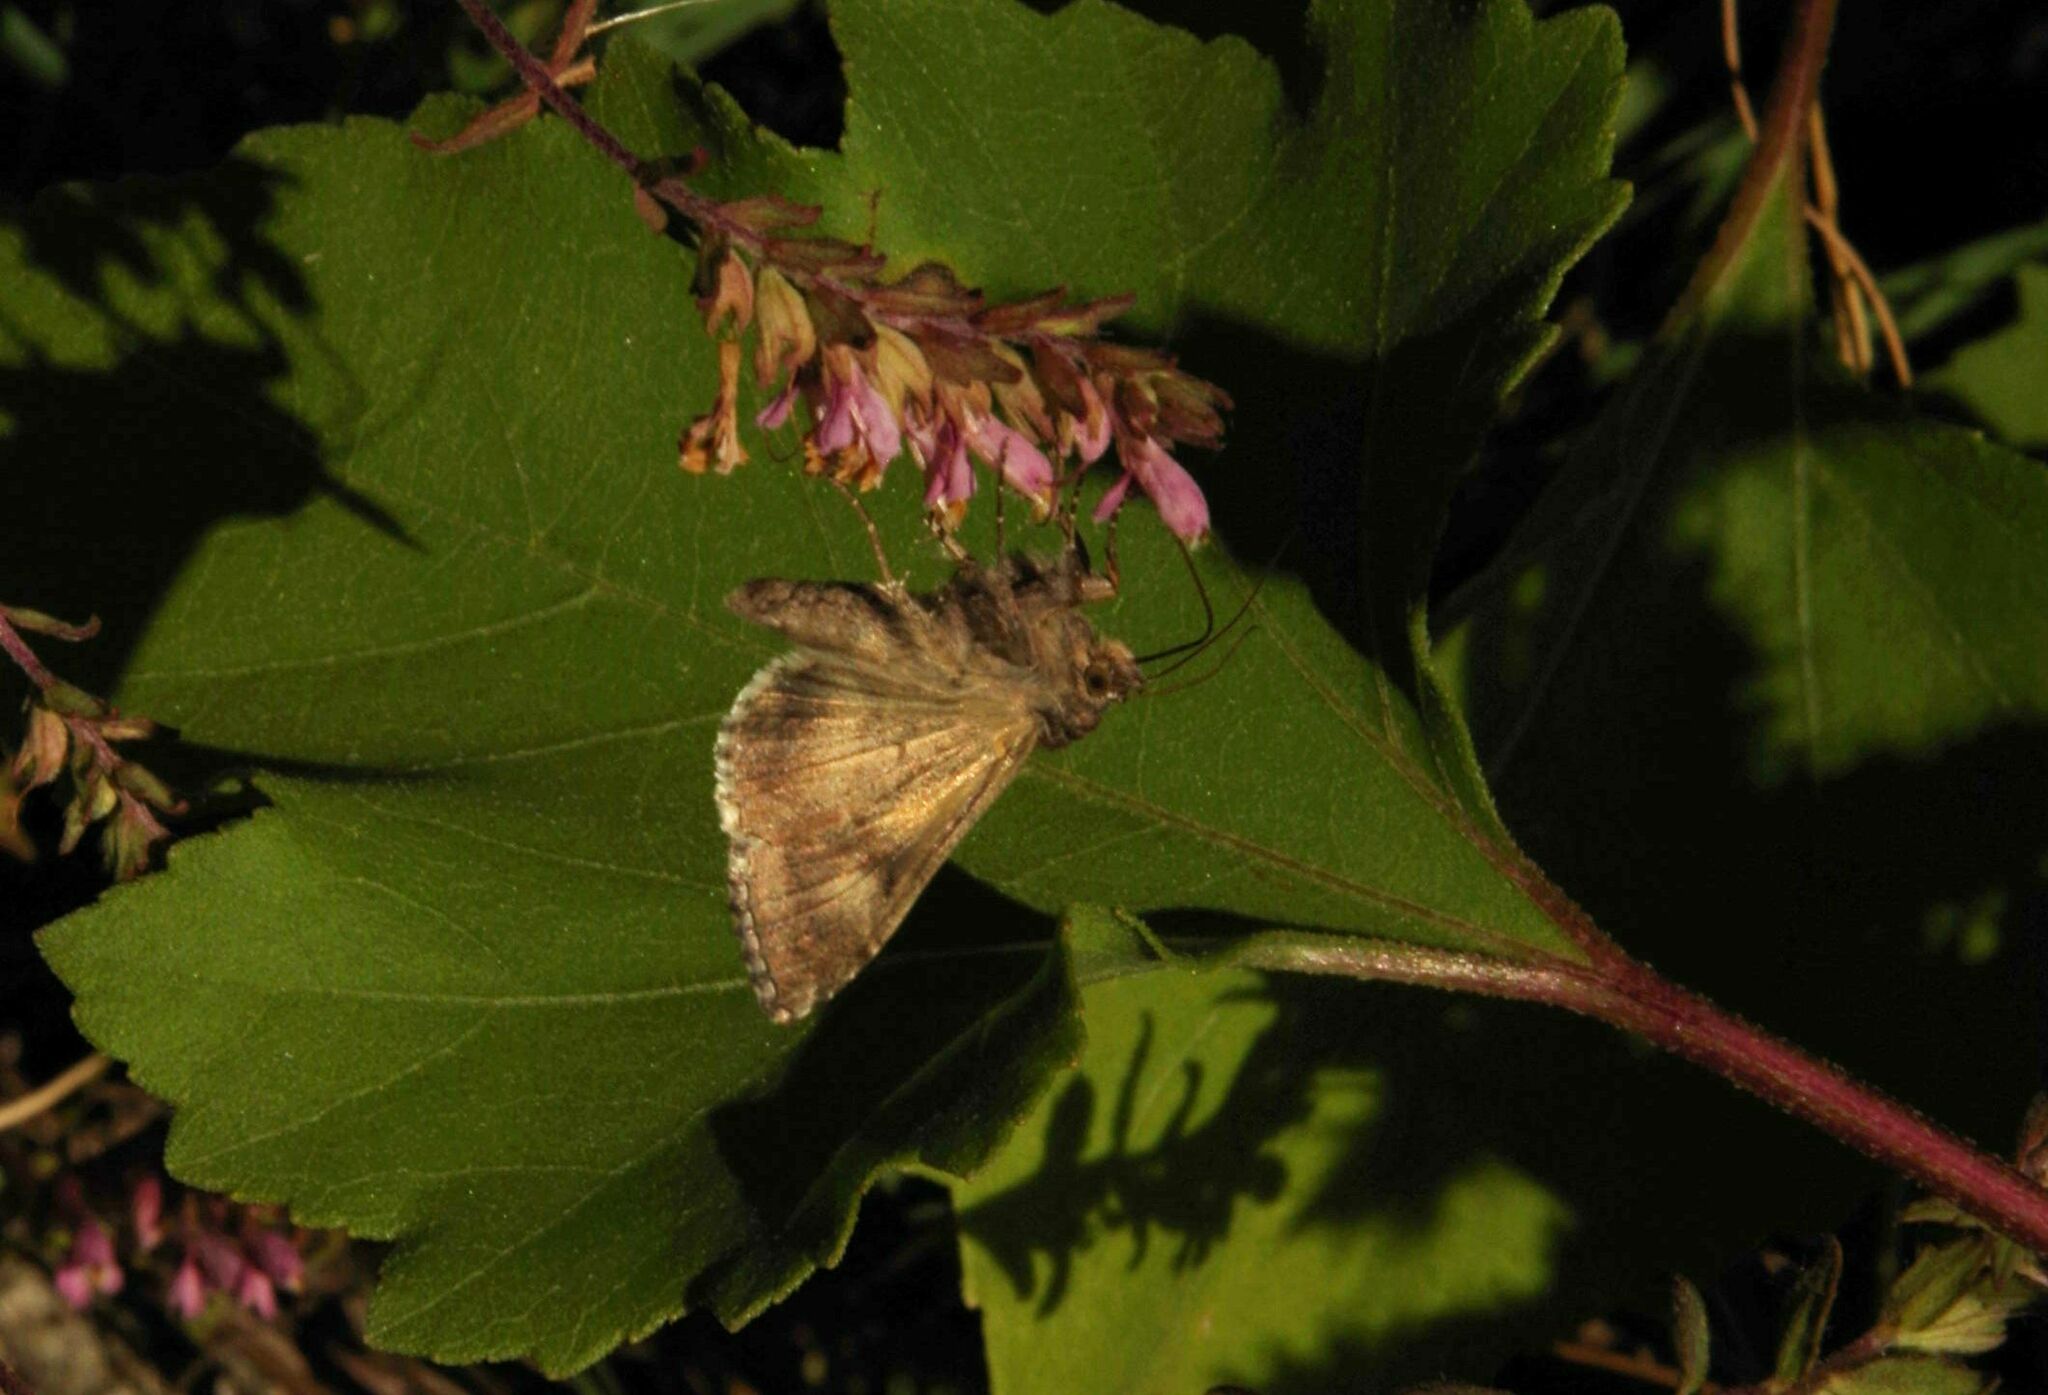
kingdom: Animalia
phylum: Arthropoda
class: Insecta
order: Lepidoptera
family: Noctuidae
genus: Autographa
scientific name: Autographa gamma
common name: Silver y
